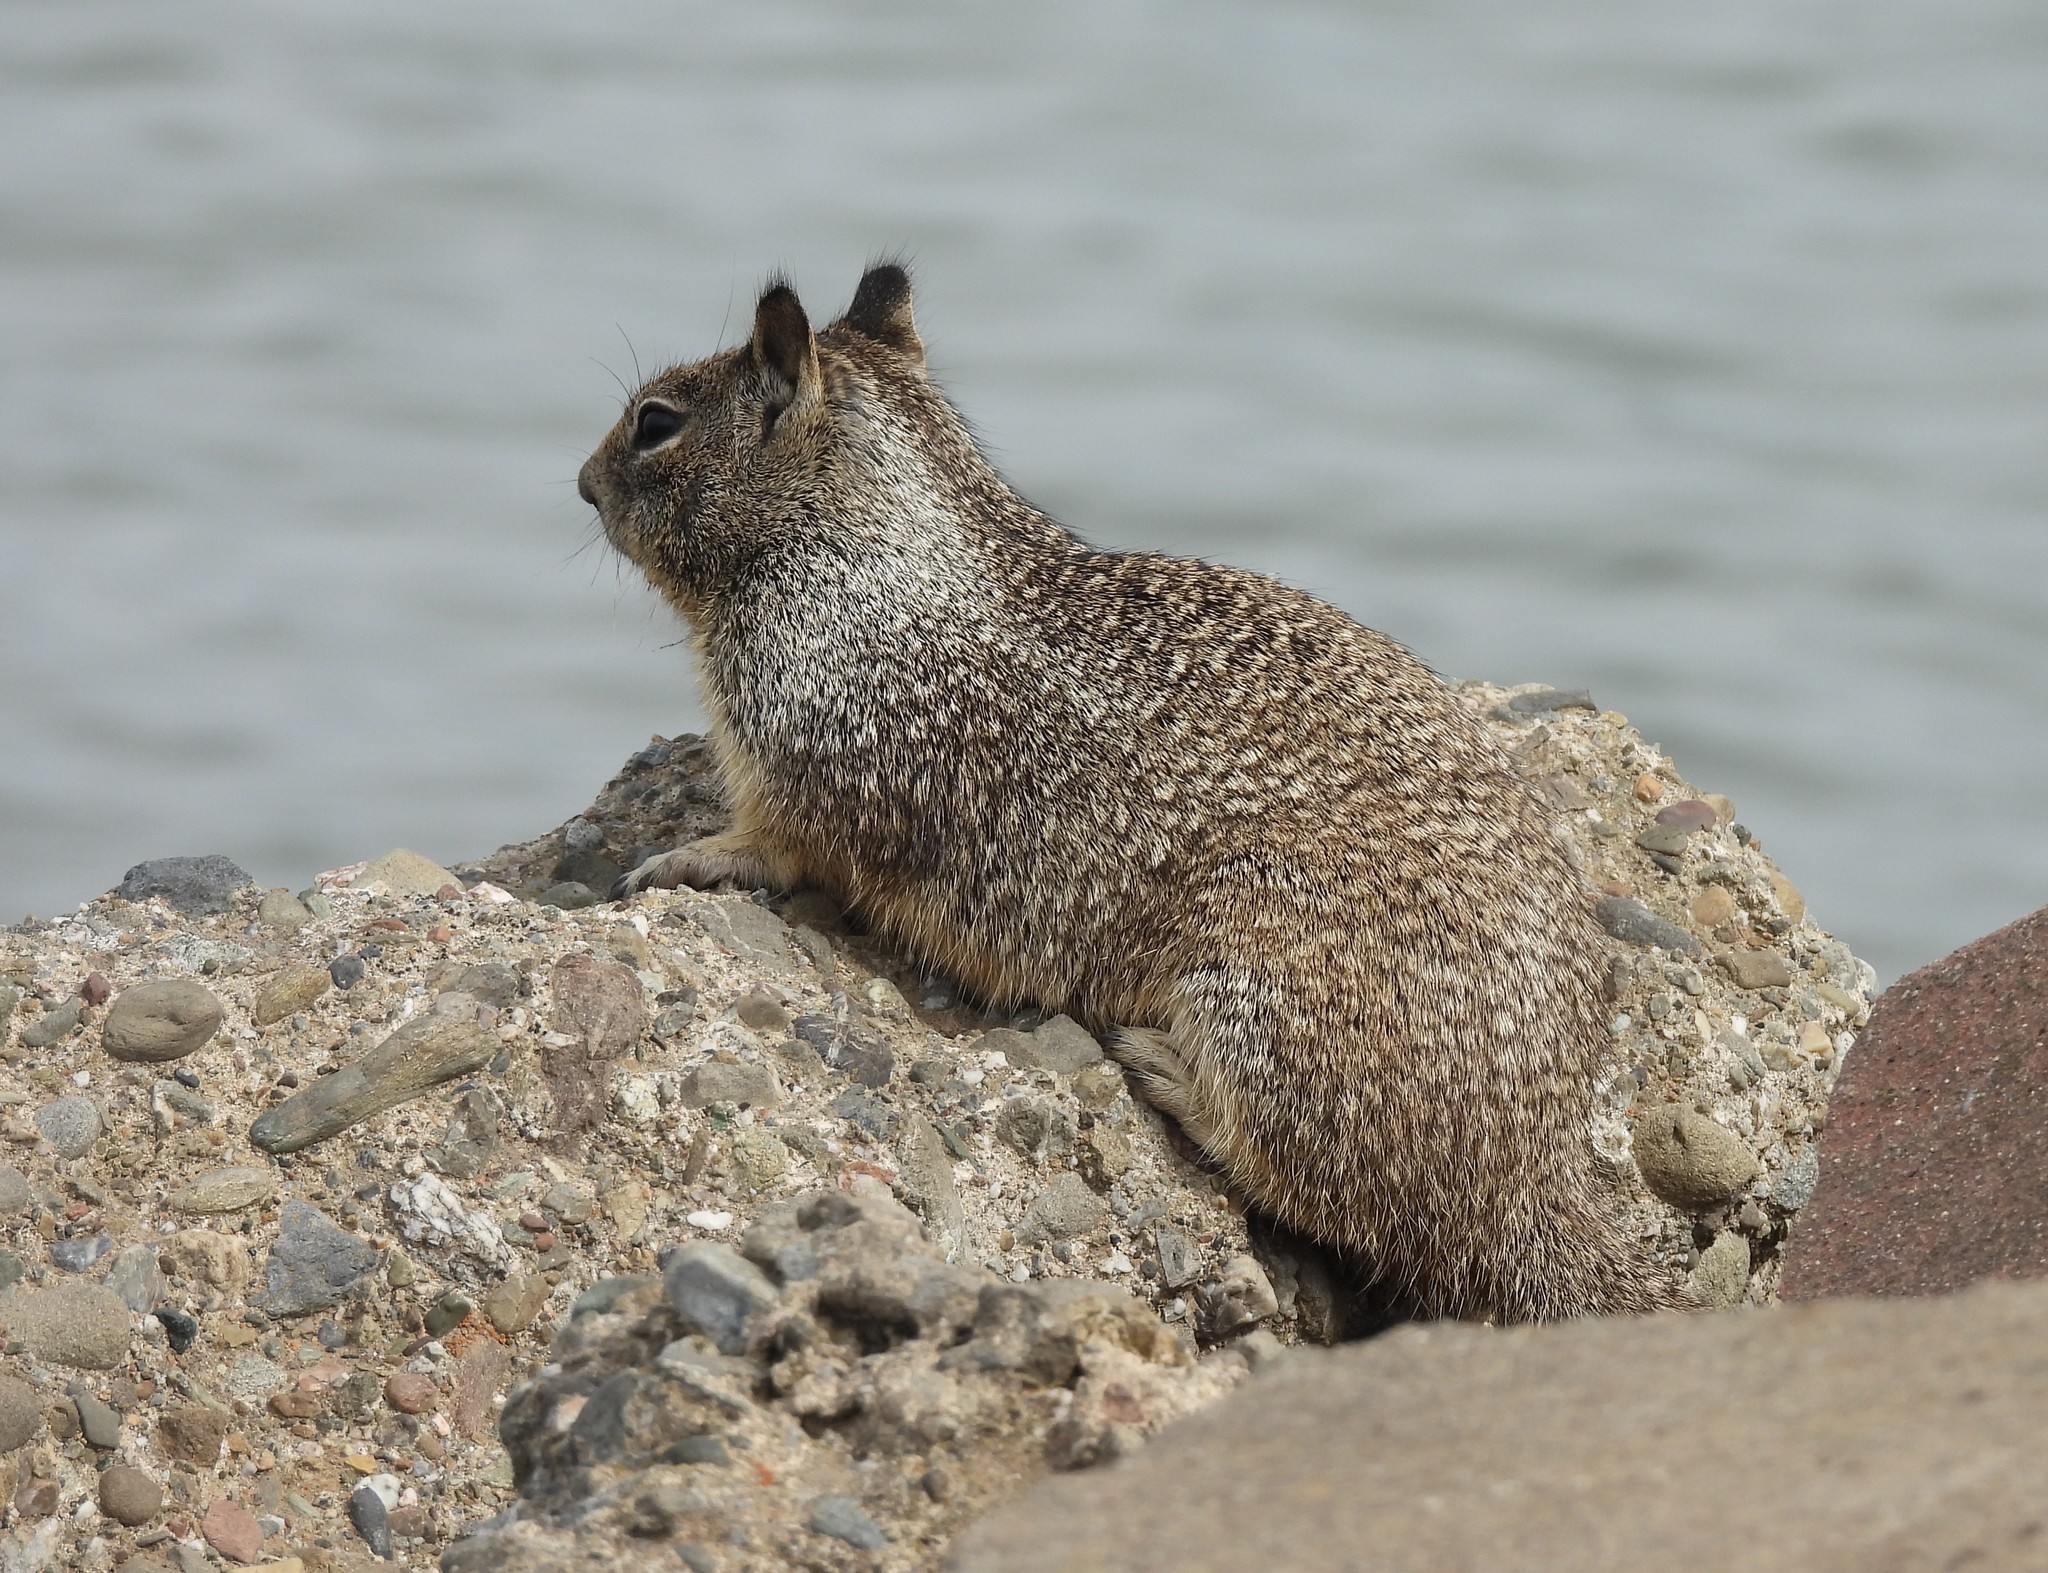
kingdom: Animalia
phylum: Chordata
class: Mammalia
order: Rodentia
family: Sciuridae
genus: Otospermophilus
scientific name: Otospermophilus beecheyi
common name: California ground squirrel
